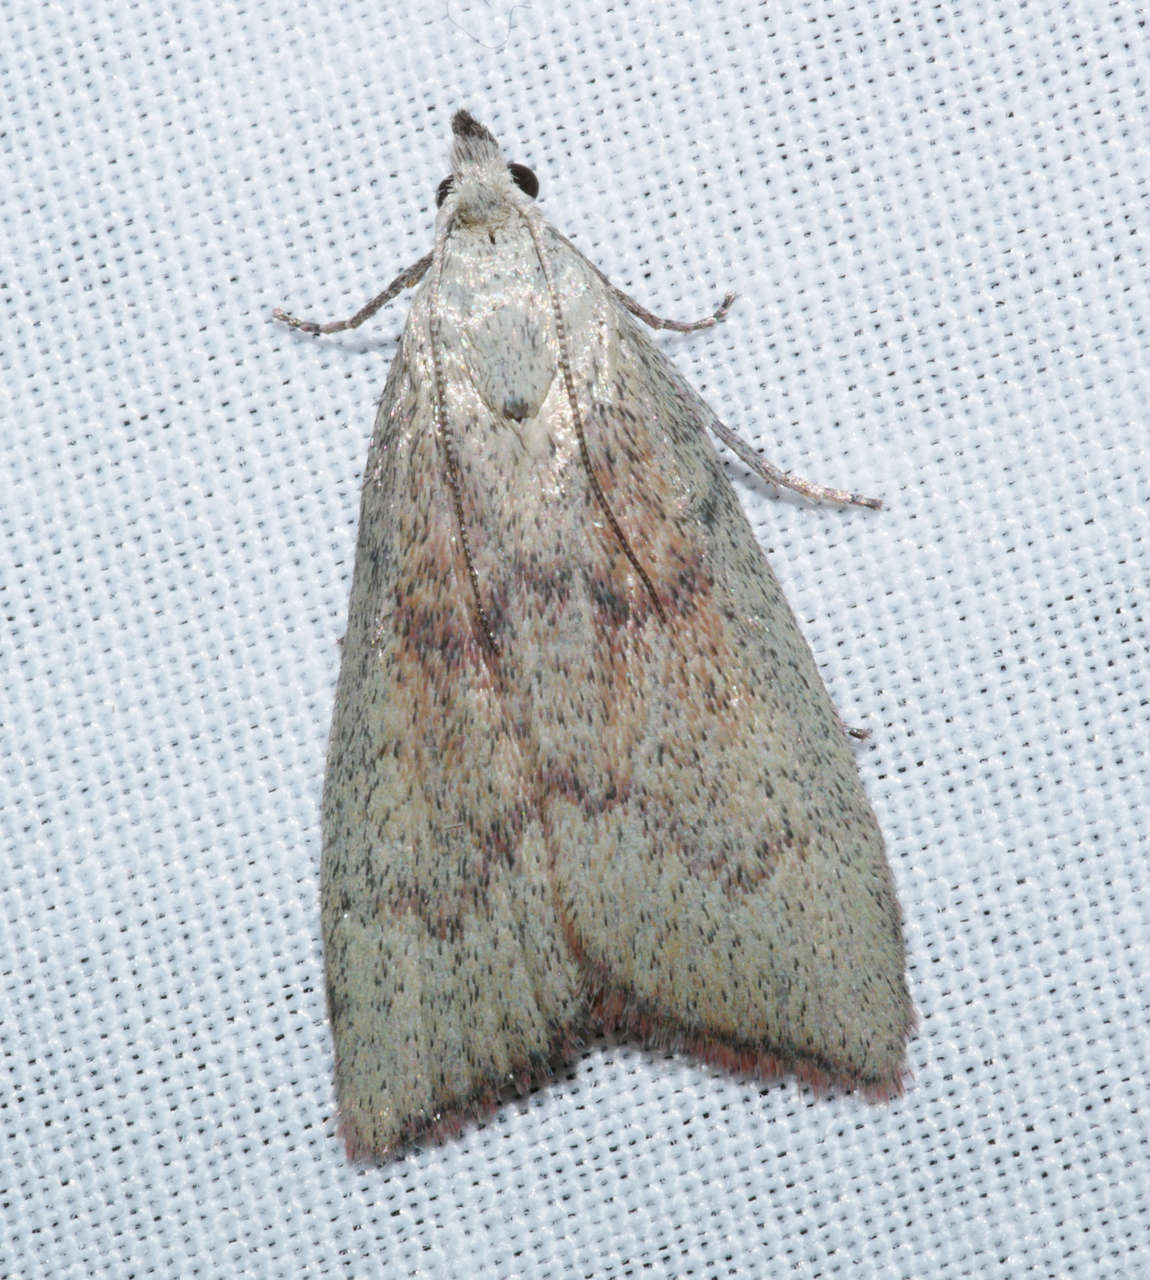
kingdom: Animalia
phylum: Arthropoda
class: Insecta
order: Lepidoptera
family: Pyralidae
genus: Callionyma
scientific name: Callionyma sarcodes
